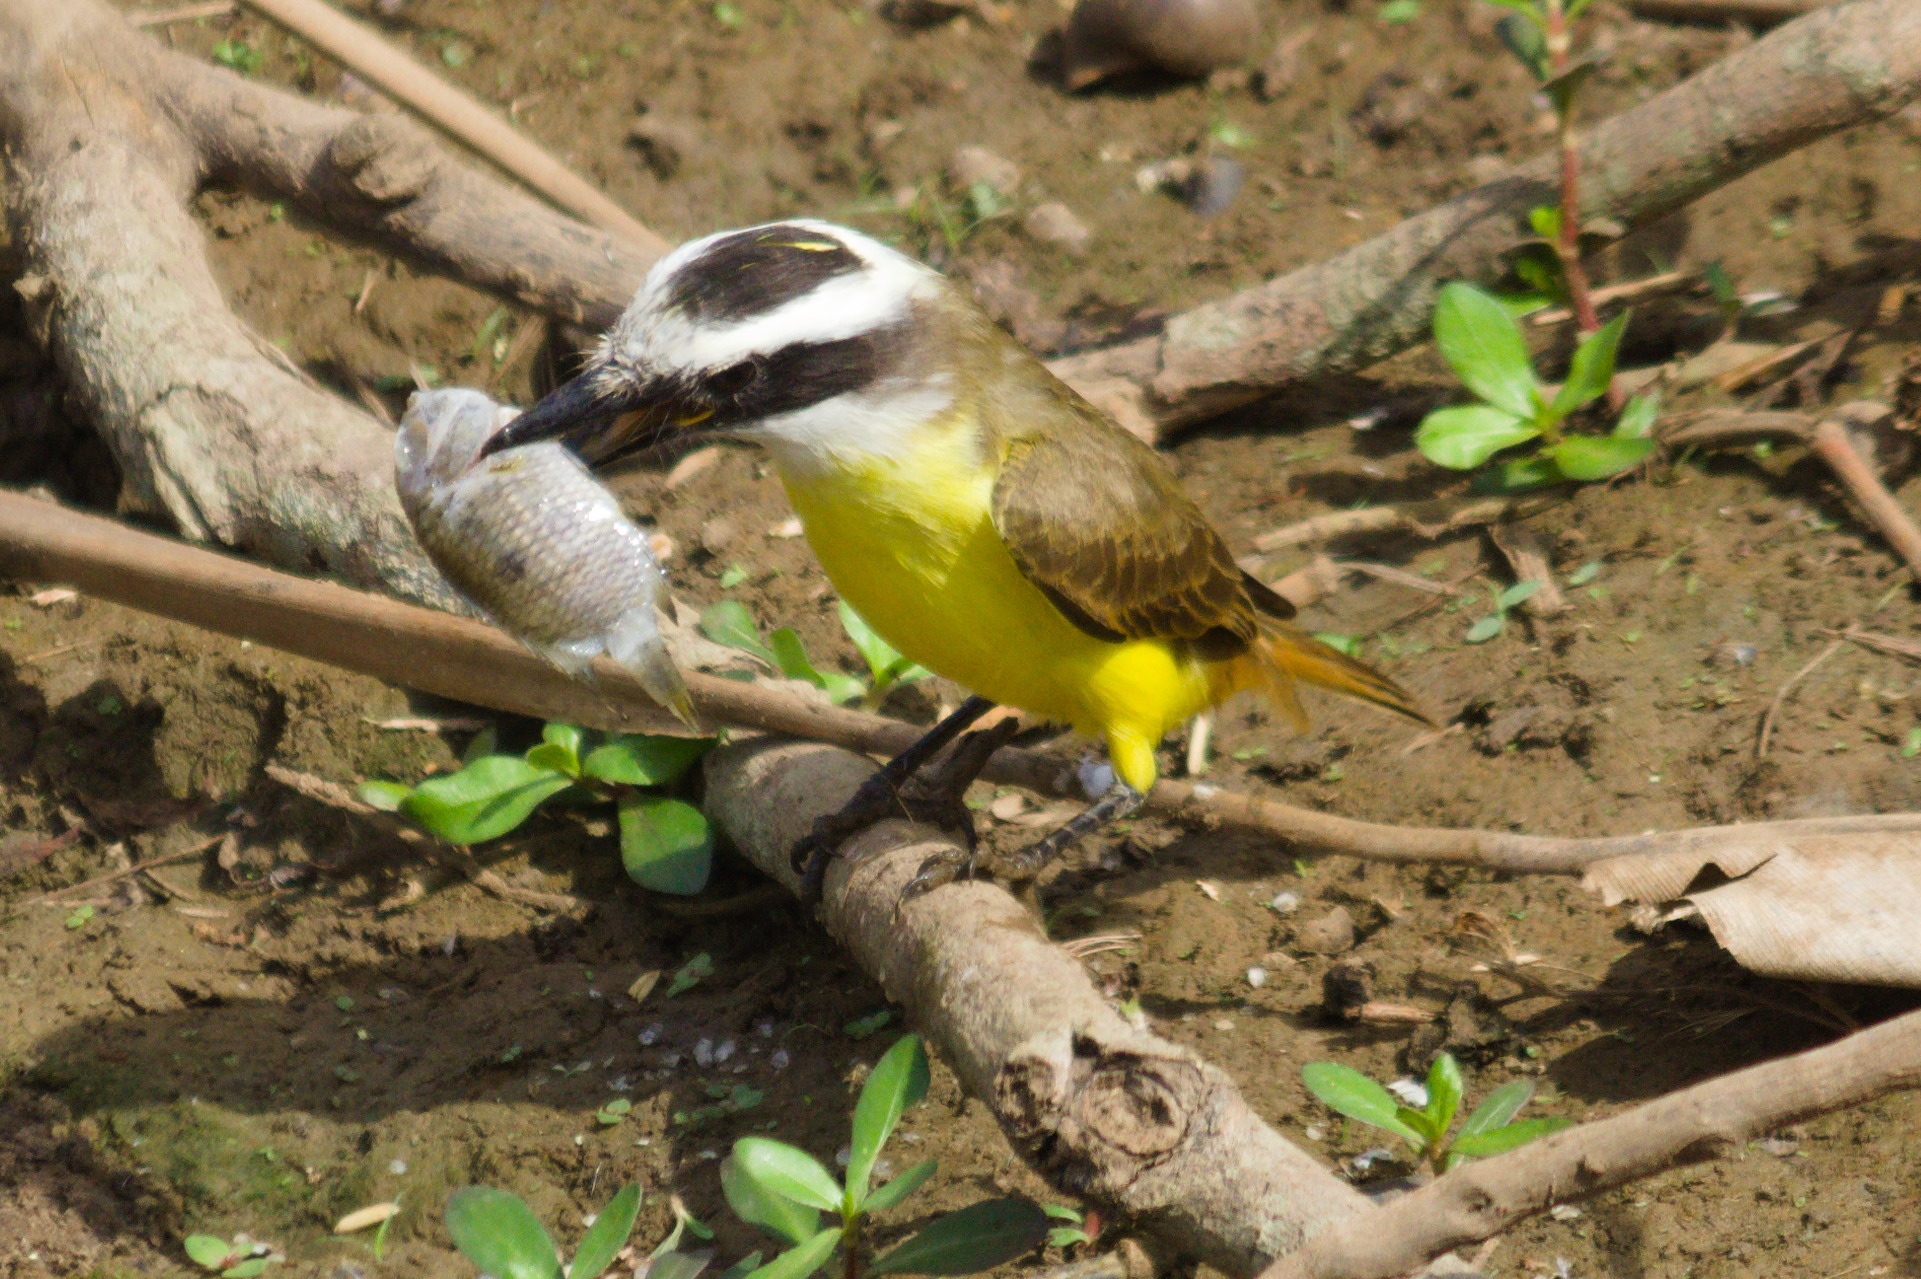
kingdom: Animalia
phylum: Chordata
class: Aves
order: Passeriformes
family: Tyrannidae
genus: Pitangus
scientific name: Pitangus sulphuratus
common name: Great kiskadee
